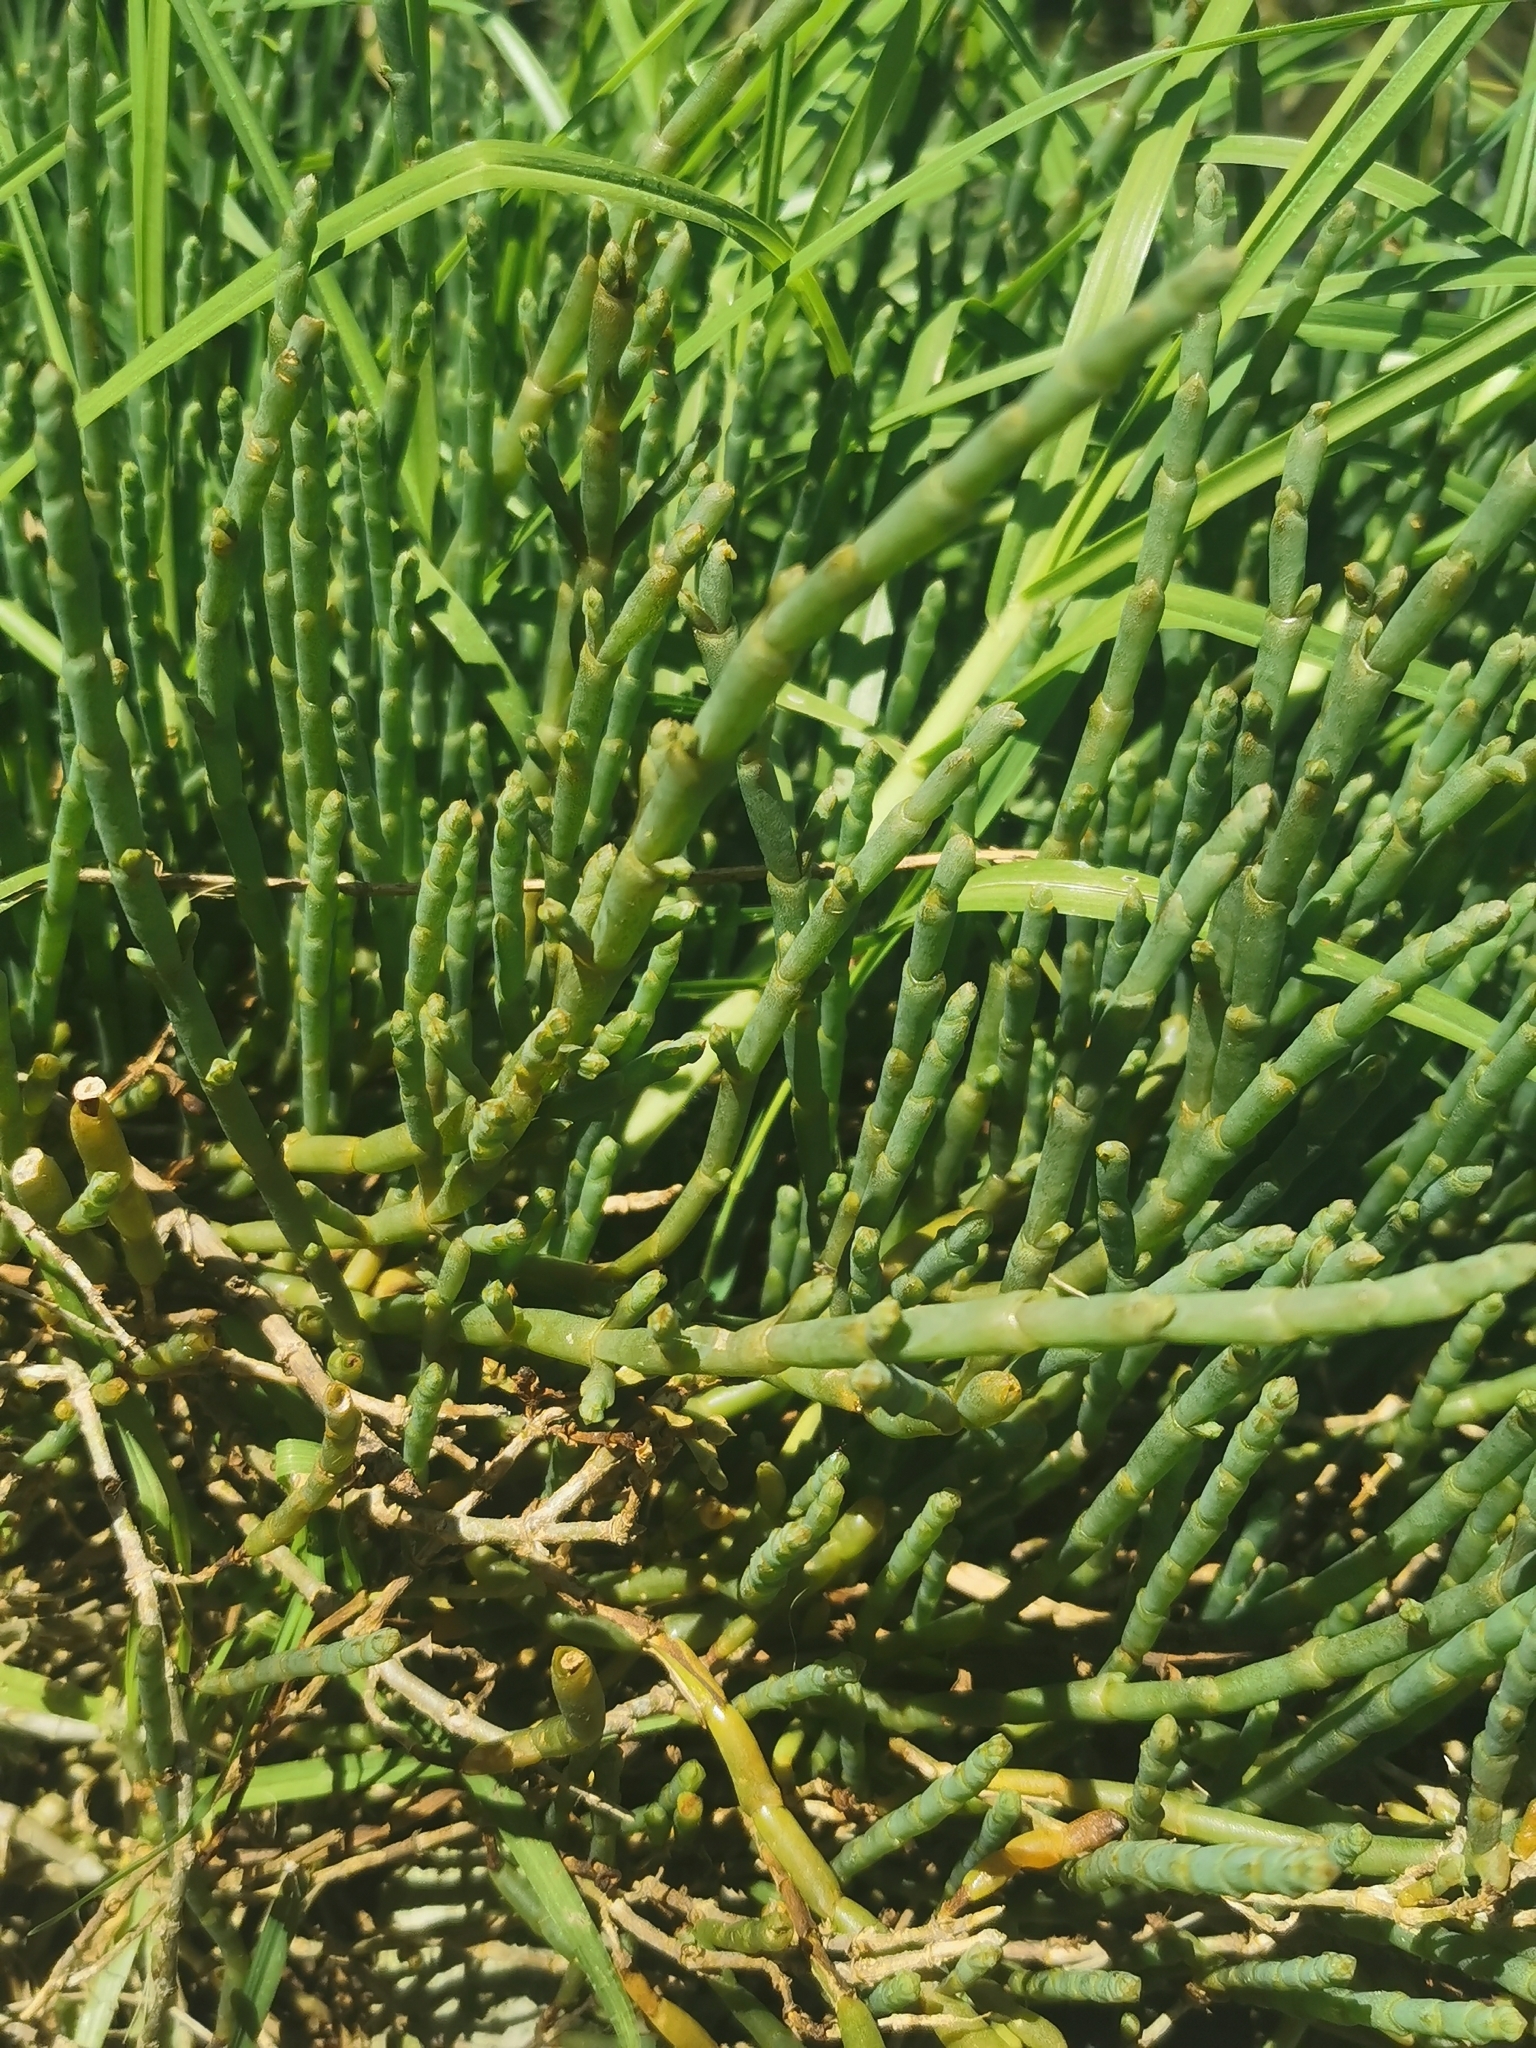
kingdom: Plantae
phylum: Tracheophyta
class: Magnoliopsida
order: Caryophyllales
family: Amaranthaceae
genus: Salicornia
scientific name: Salicornia quinqueflora
